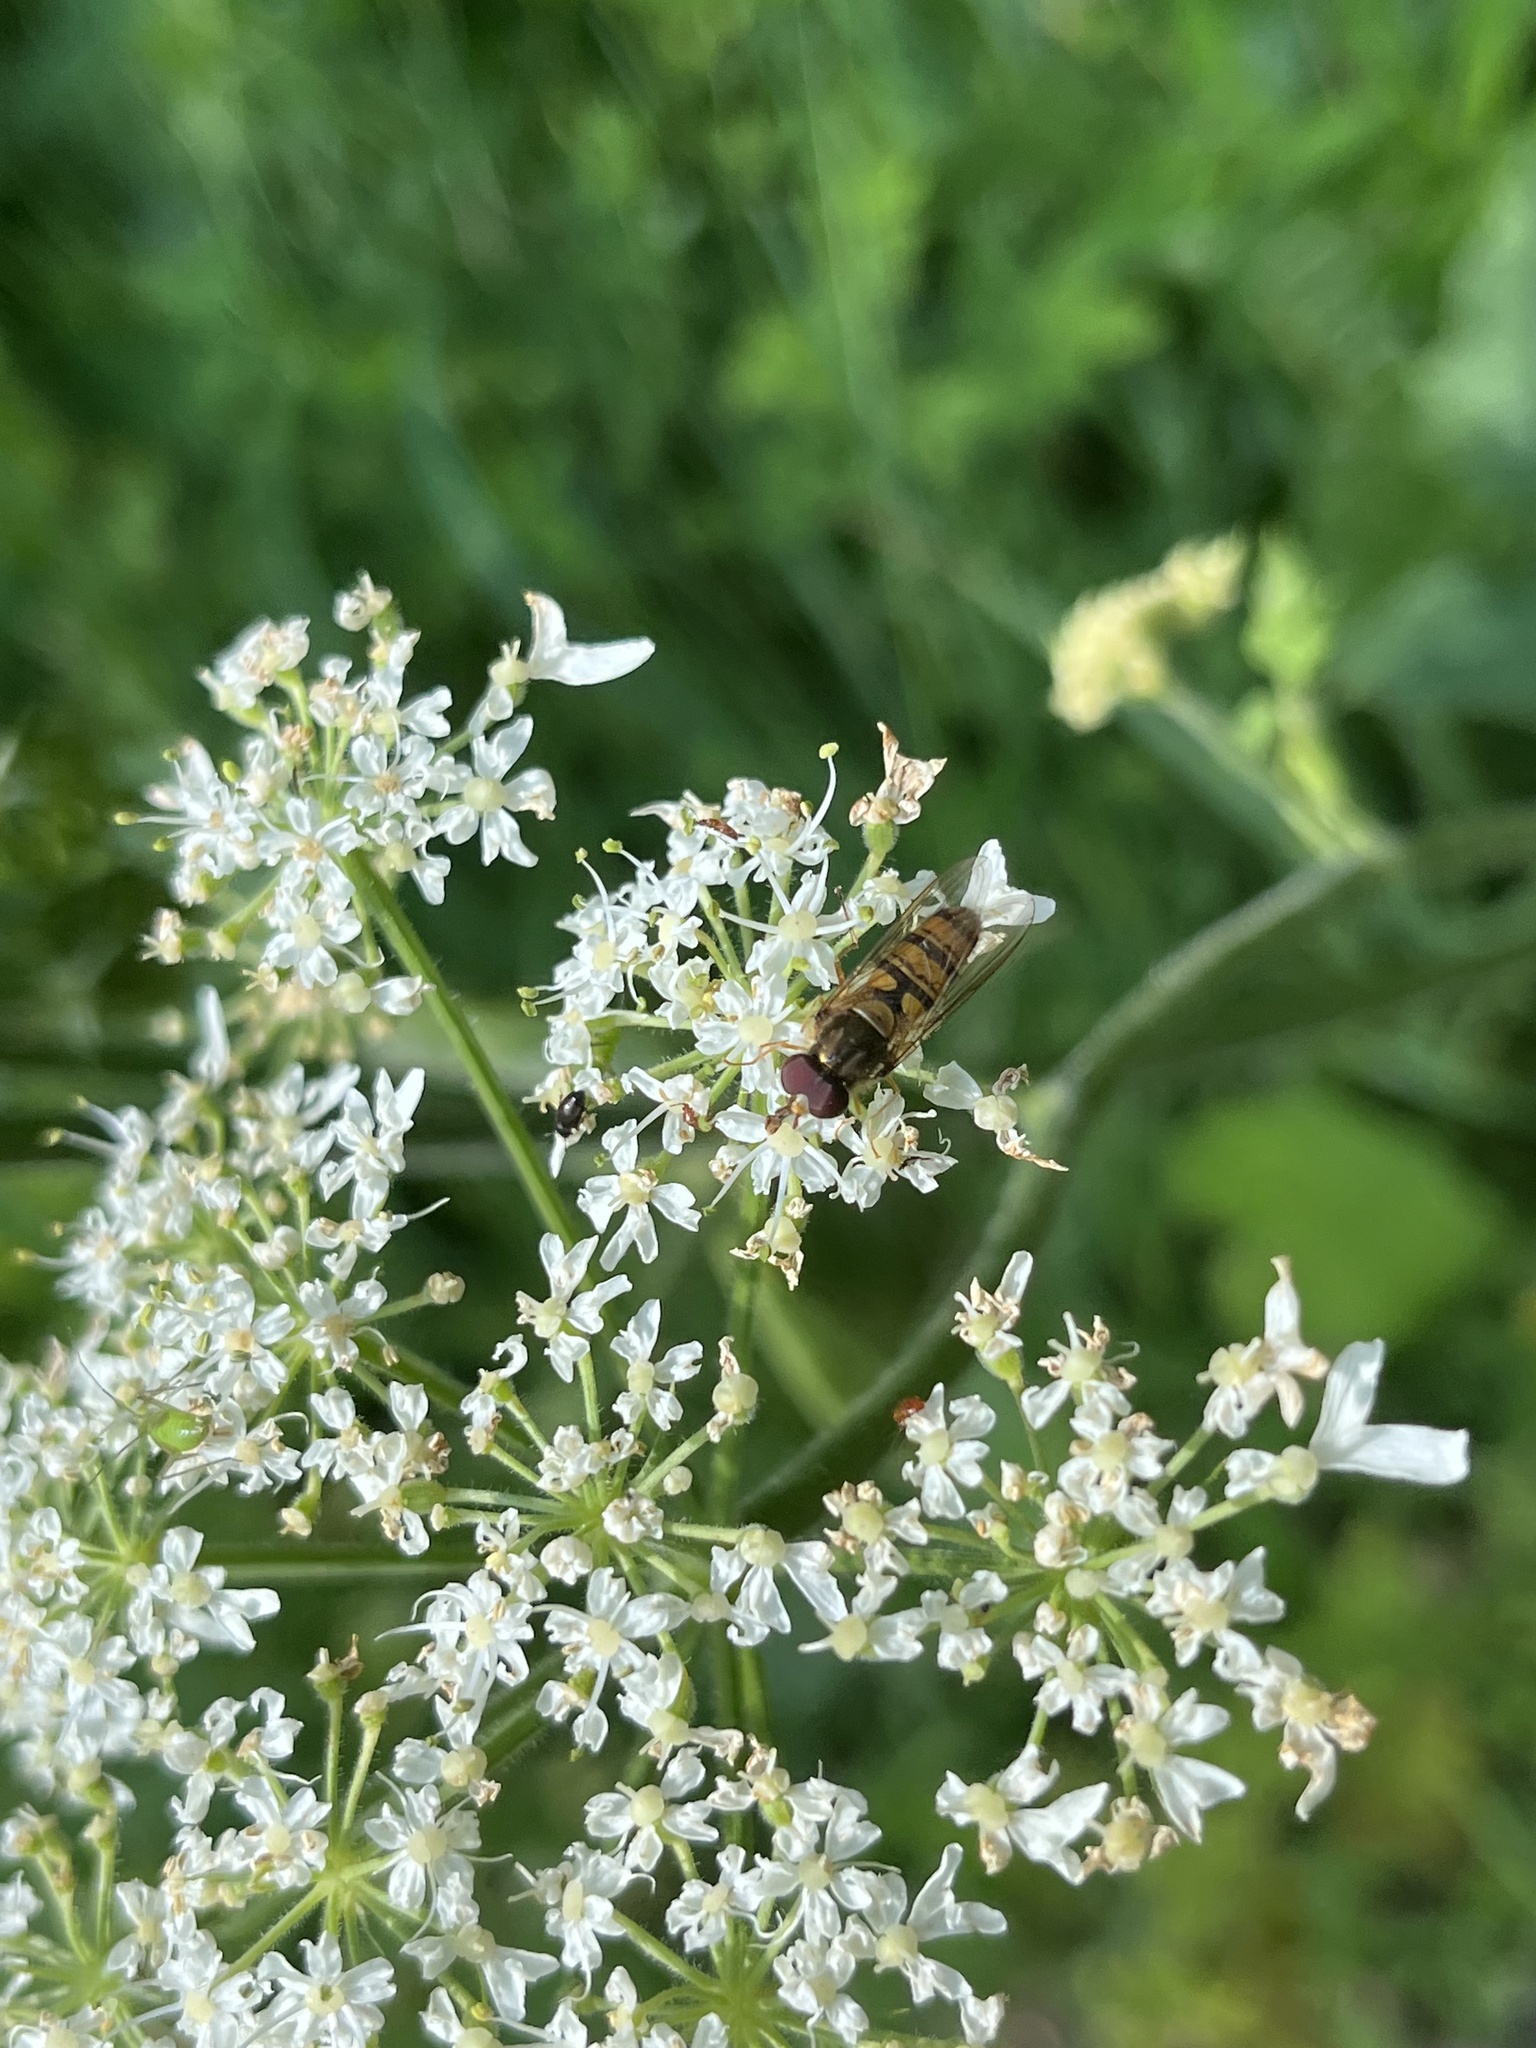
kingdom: Animalia
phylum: Arthropoda
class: Insecta
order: Diptera
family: Syrphidae
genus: Episyrphus
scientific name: Episyrphus balteatus
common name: Marmalade hoverfly
